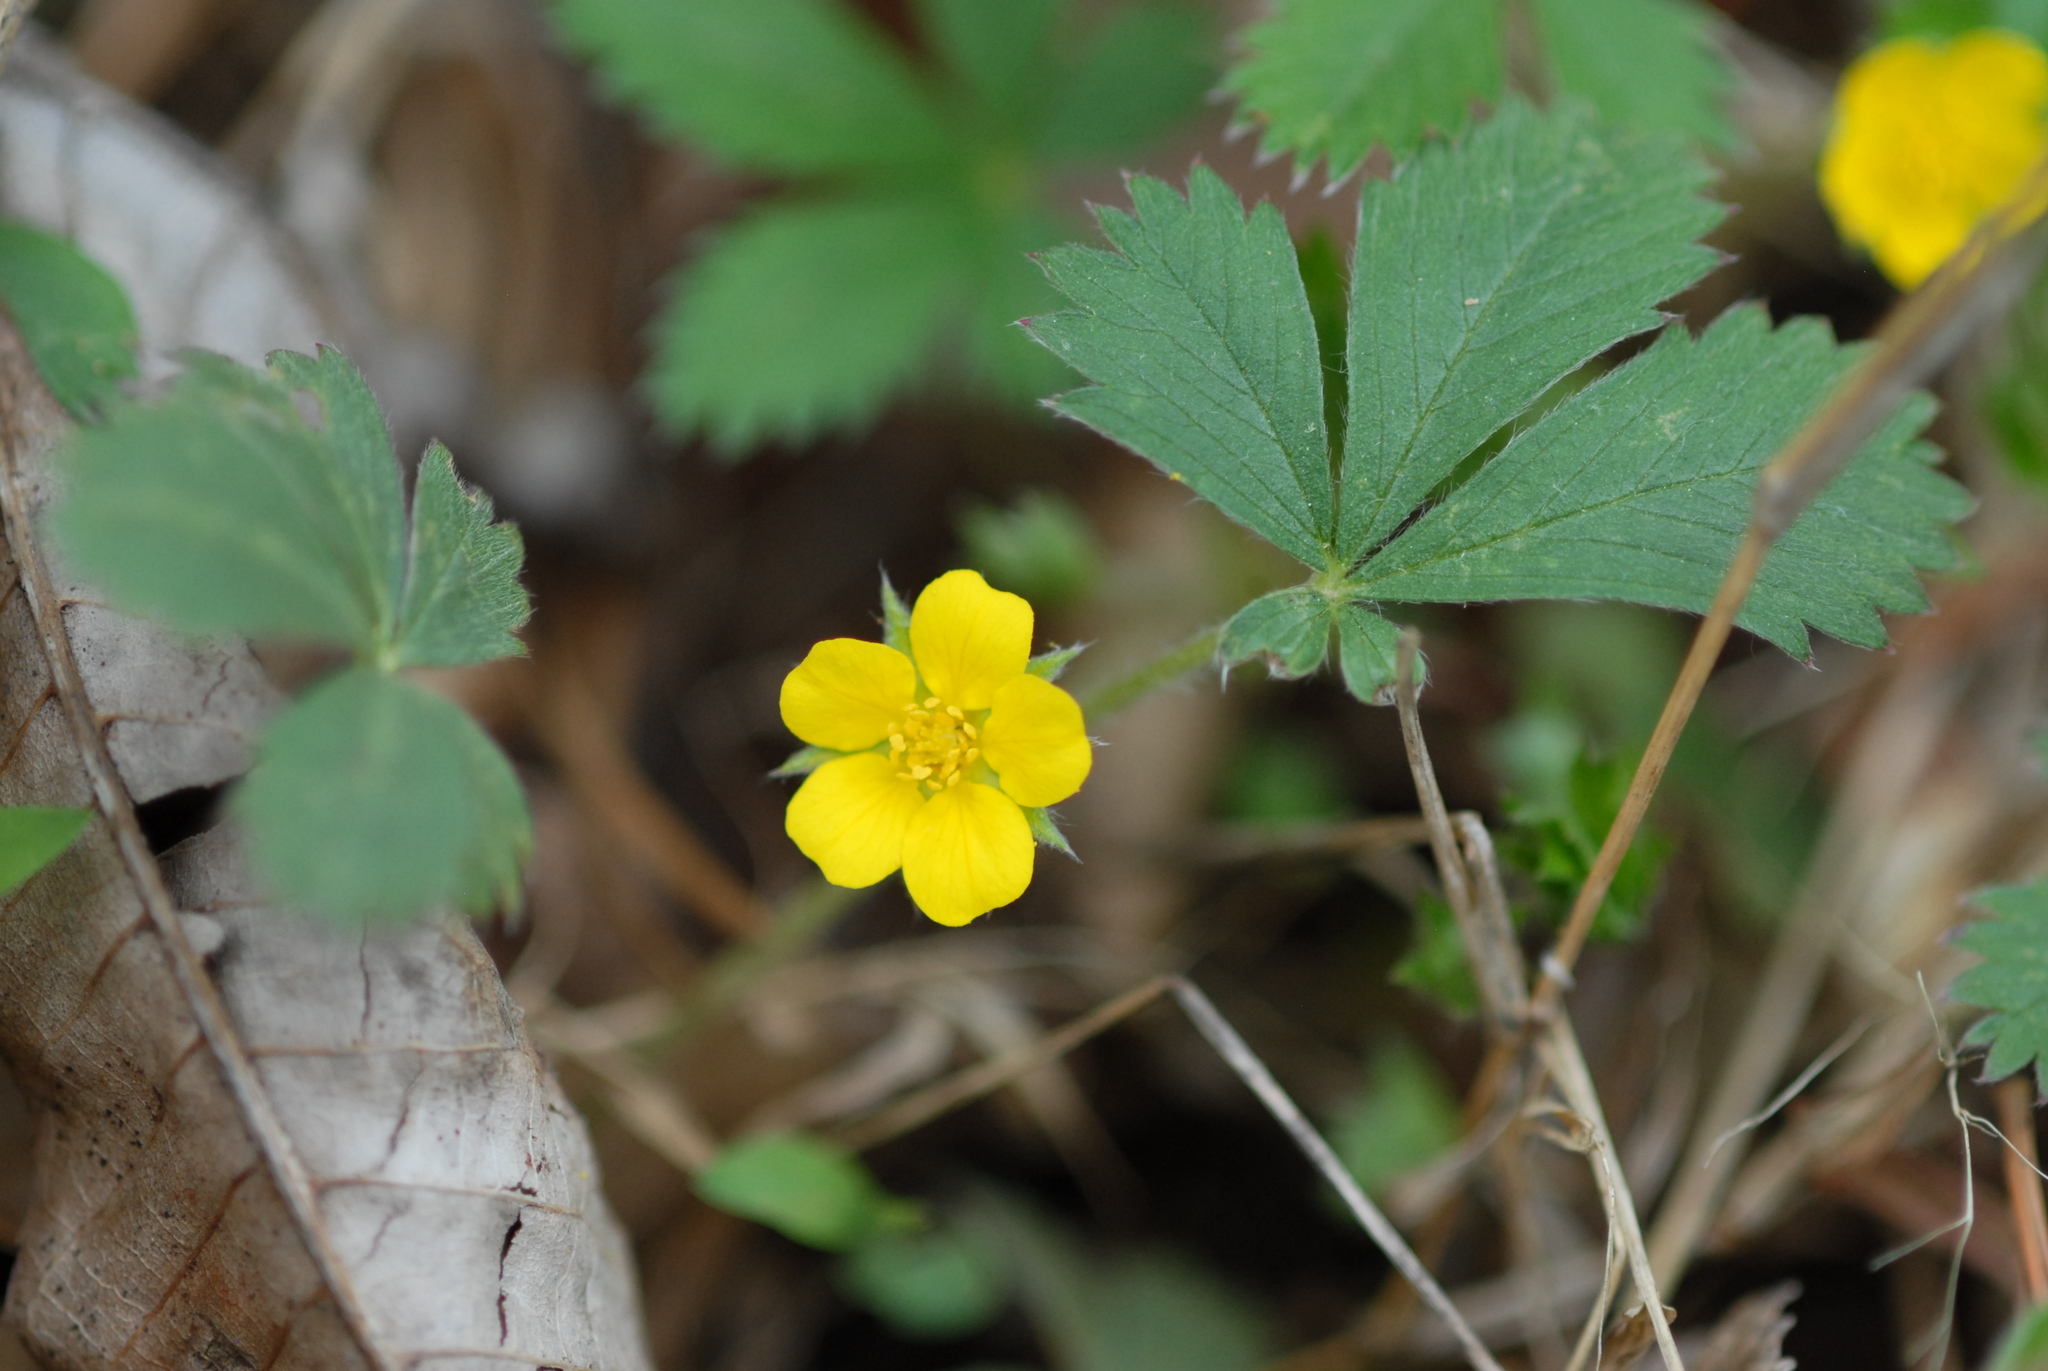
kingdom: Plantae
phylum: Tracheophyta
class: Magnoliopsida
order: Rosales
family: Rosaceae
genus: Potentilla
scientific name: Potentilla canadensis
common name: Canada cinquefoil
